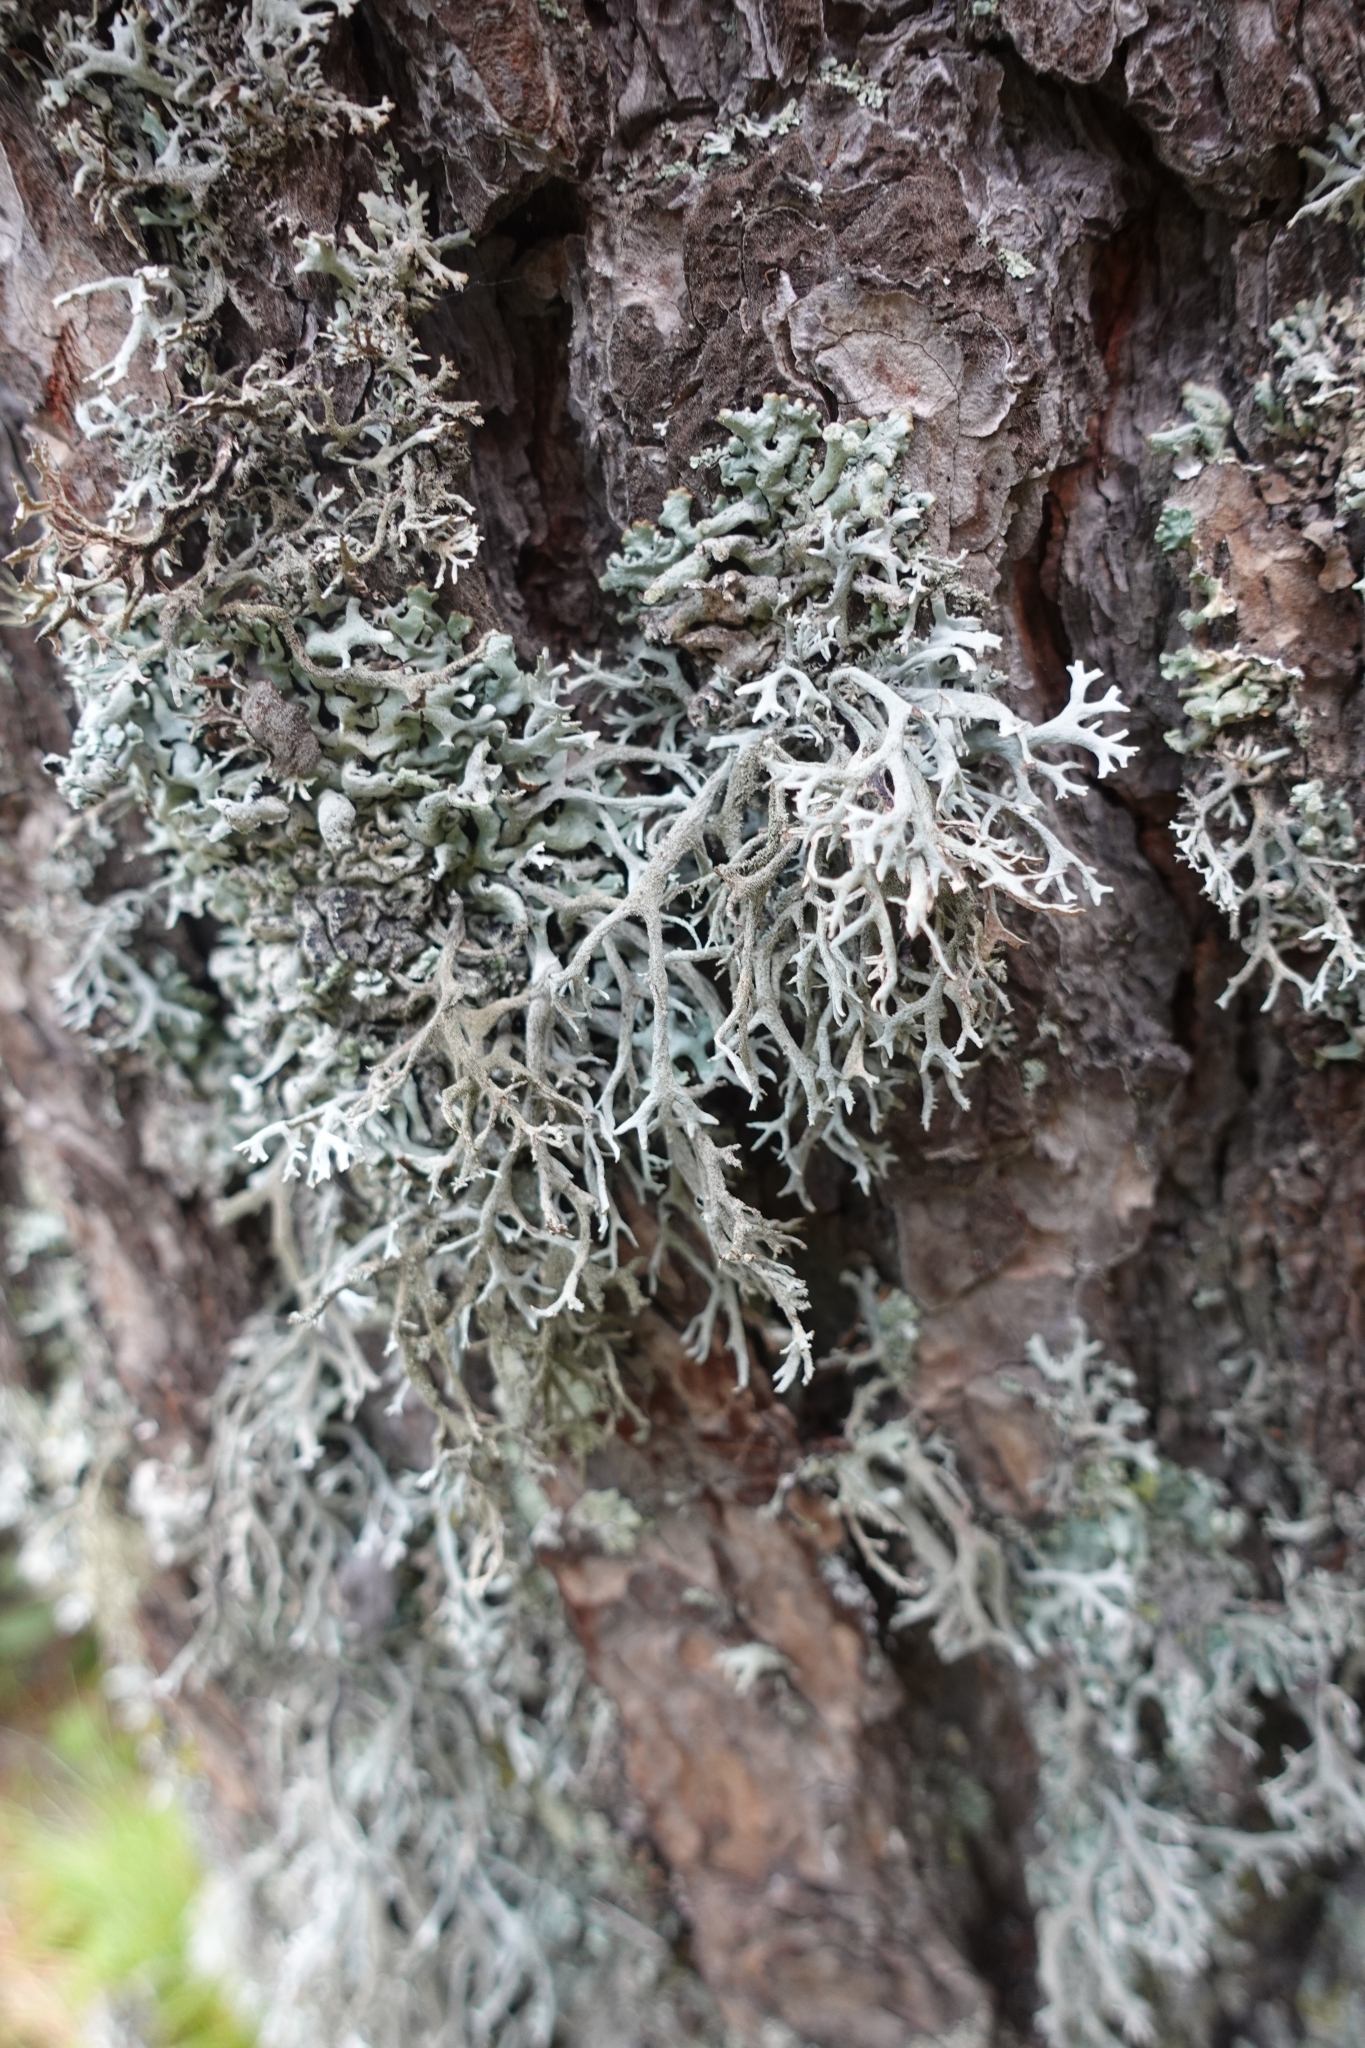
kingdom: Fungi
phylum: Ascomycota
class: Lecanoromycetes
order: Lecanorales
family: Parmeliaceae
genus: Pseudevernia
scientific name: Pseudevernia furfuracea
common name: Tree moss
